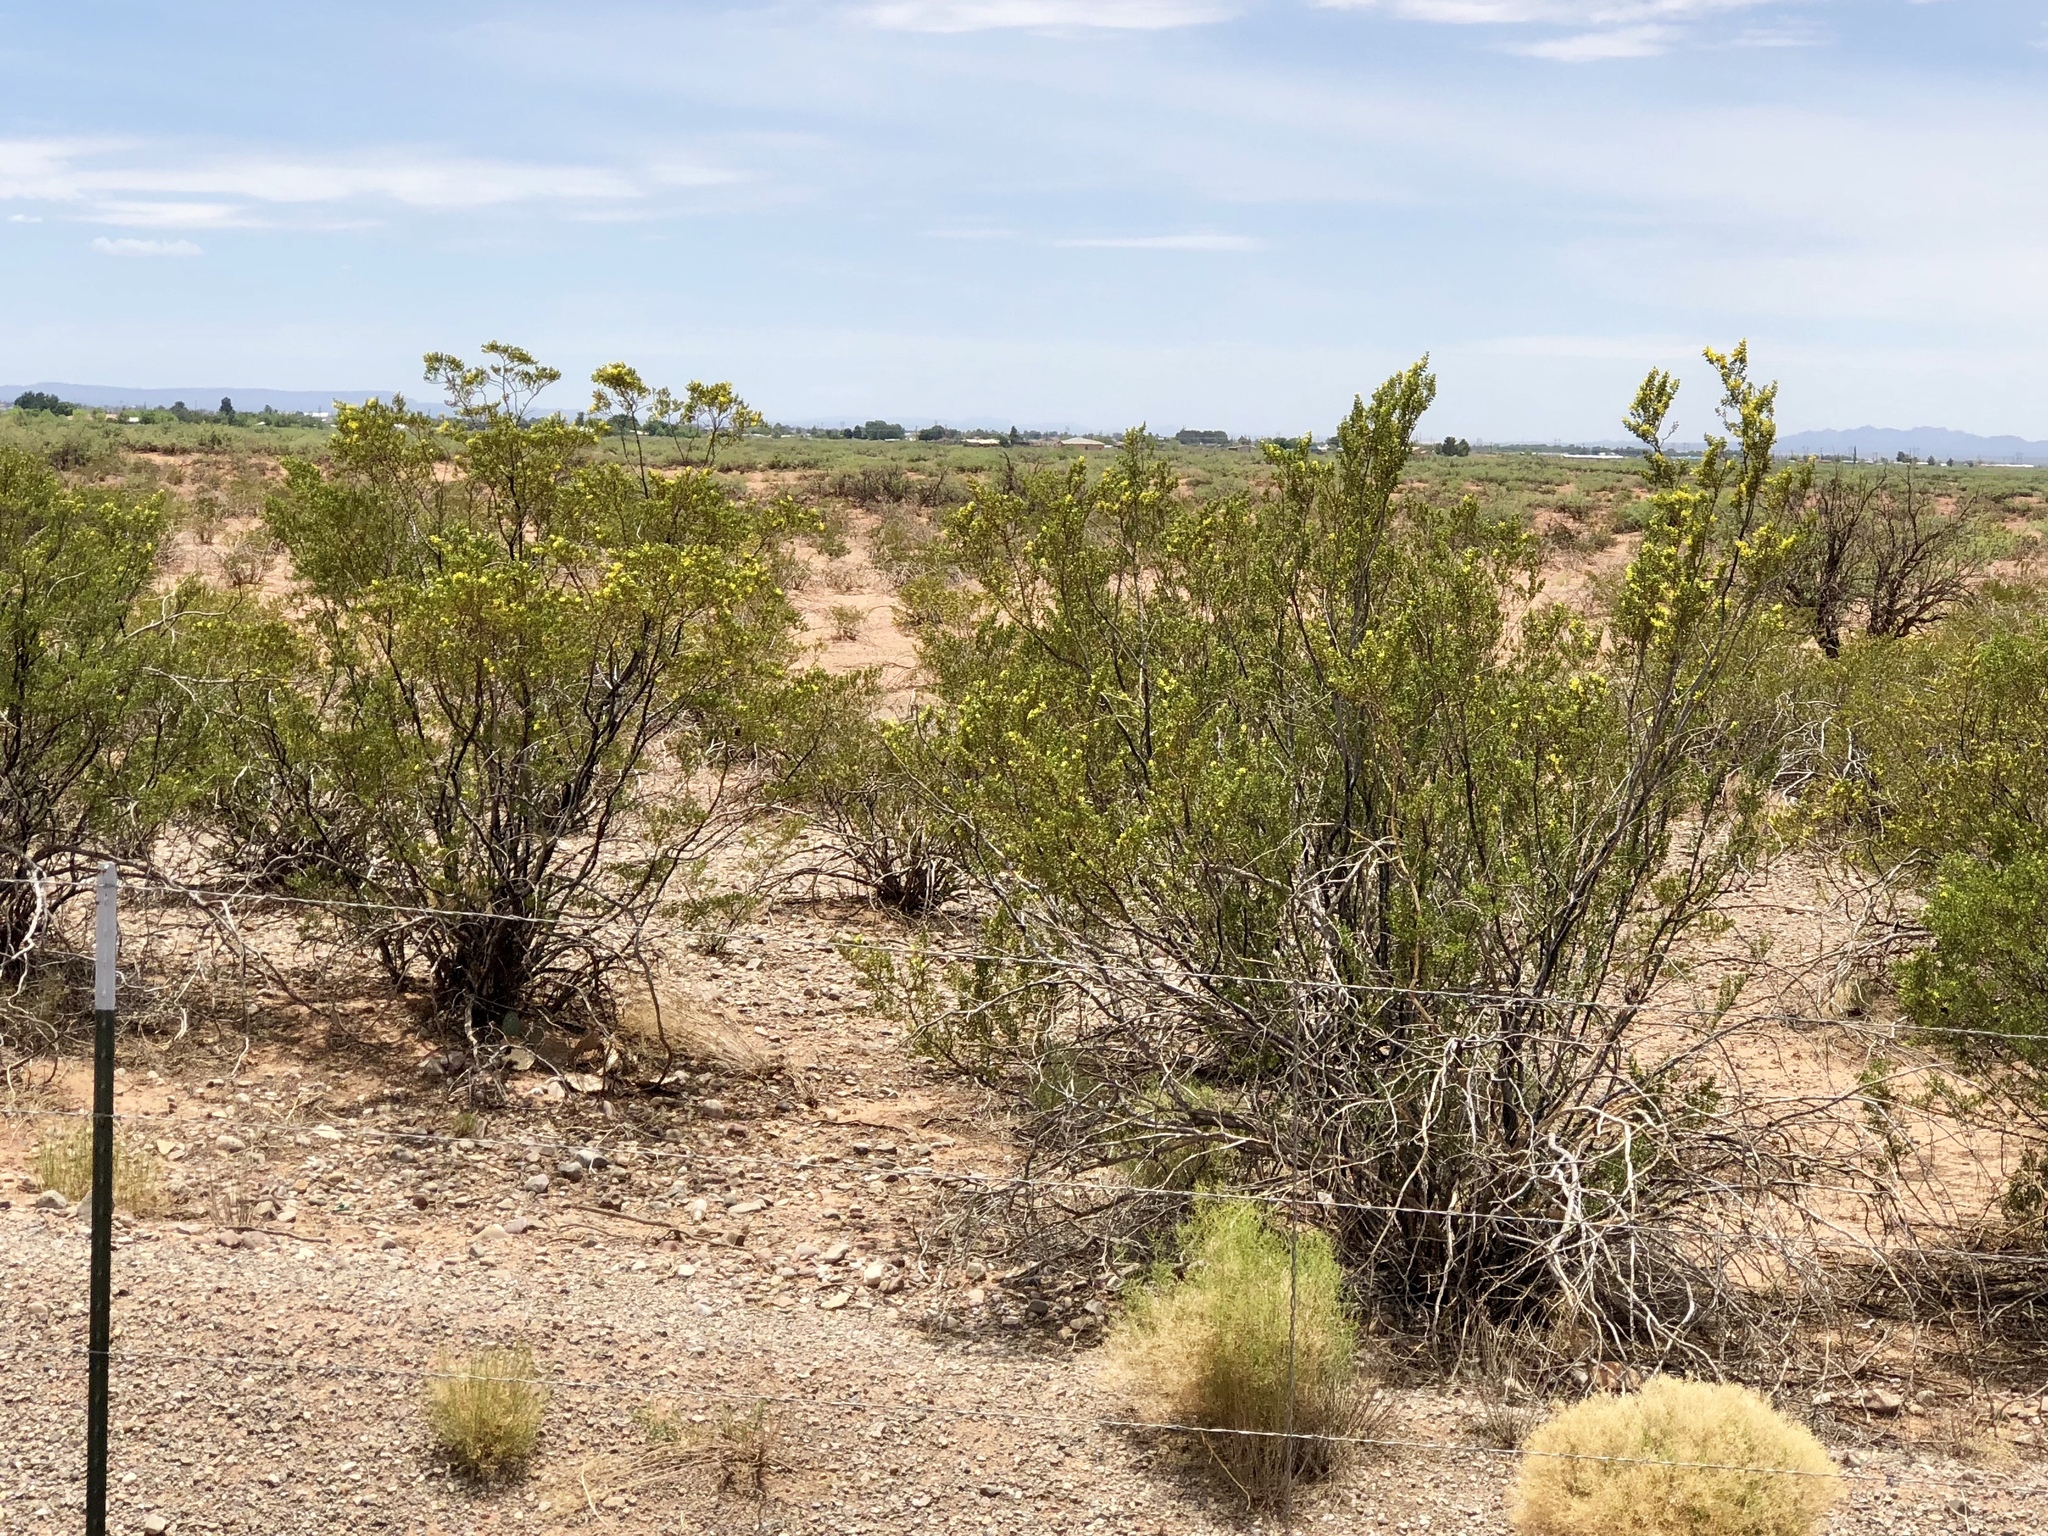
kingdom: Plantae
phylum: Tracheophyta
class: Magnoliopsida
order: Zygophyllales
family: Zygophyllaceae
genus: Larrea
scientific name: Larrea tridentata
